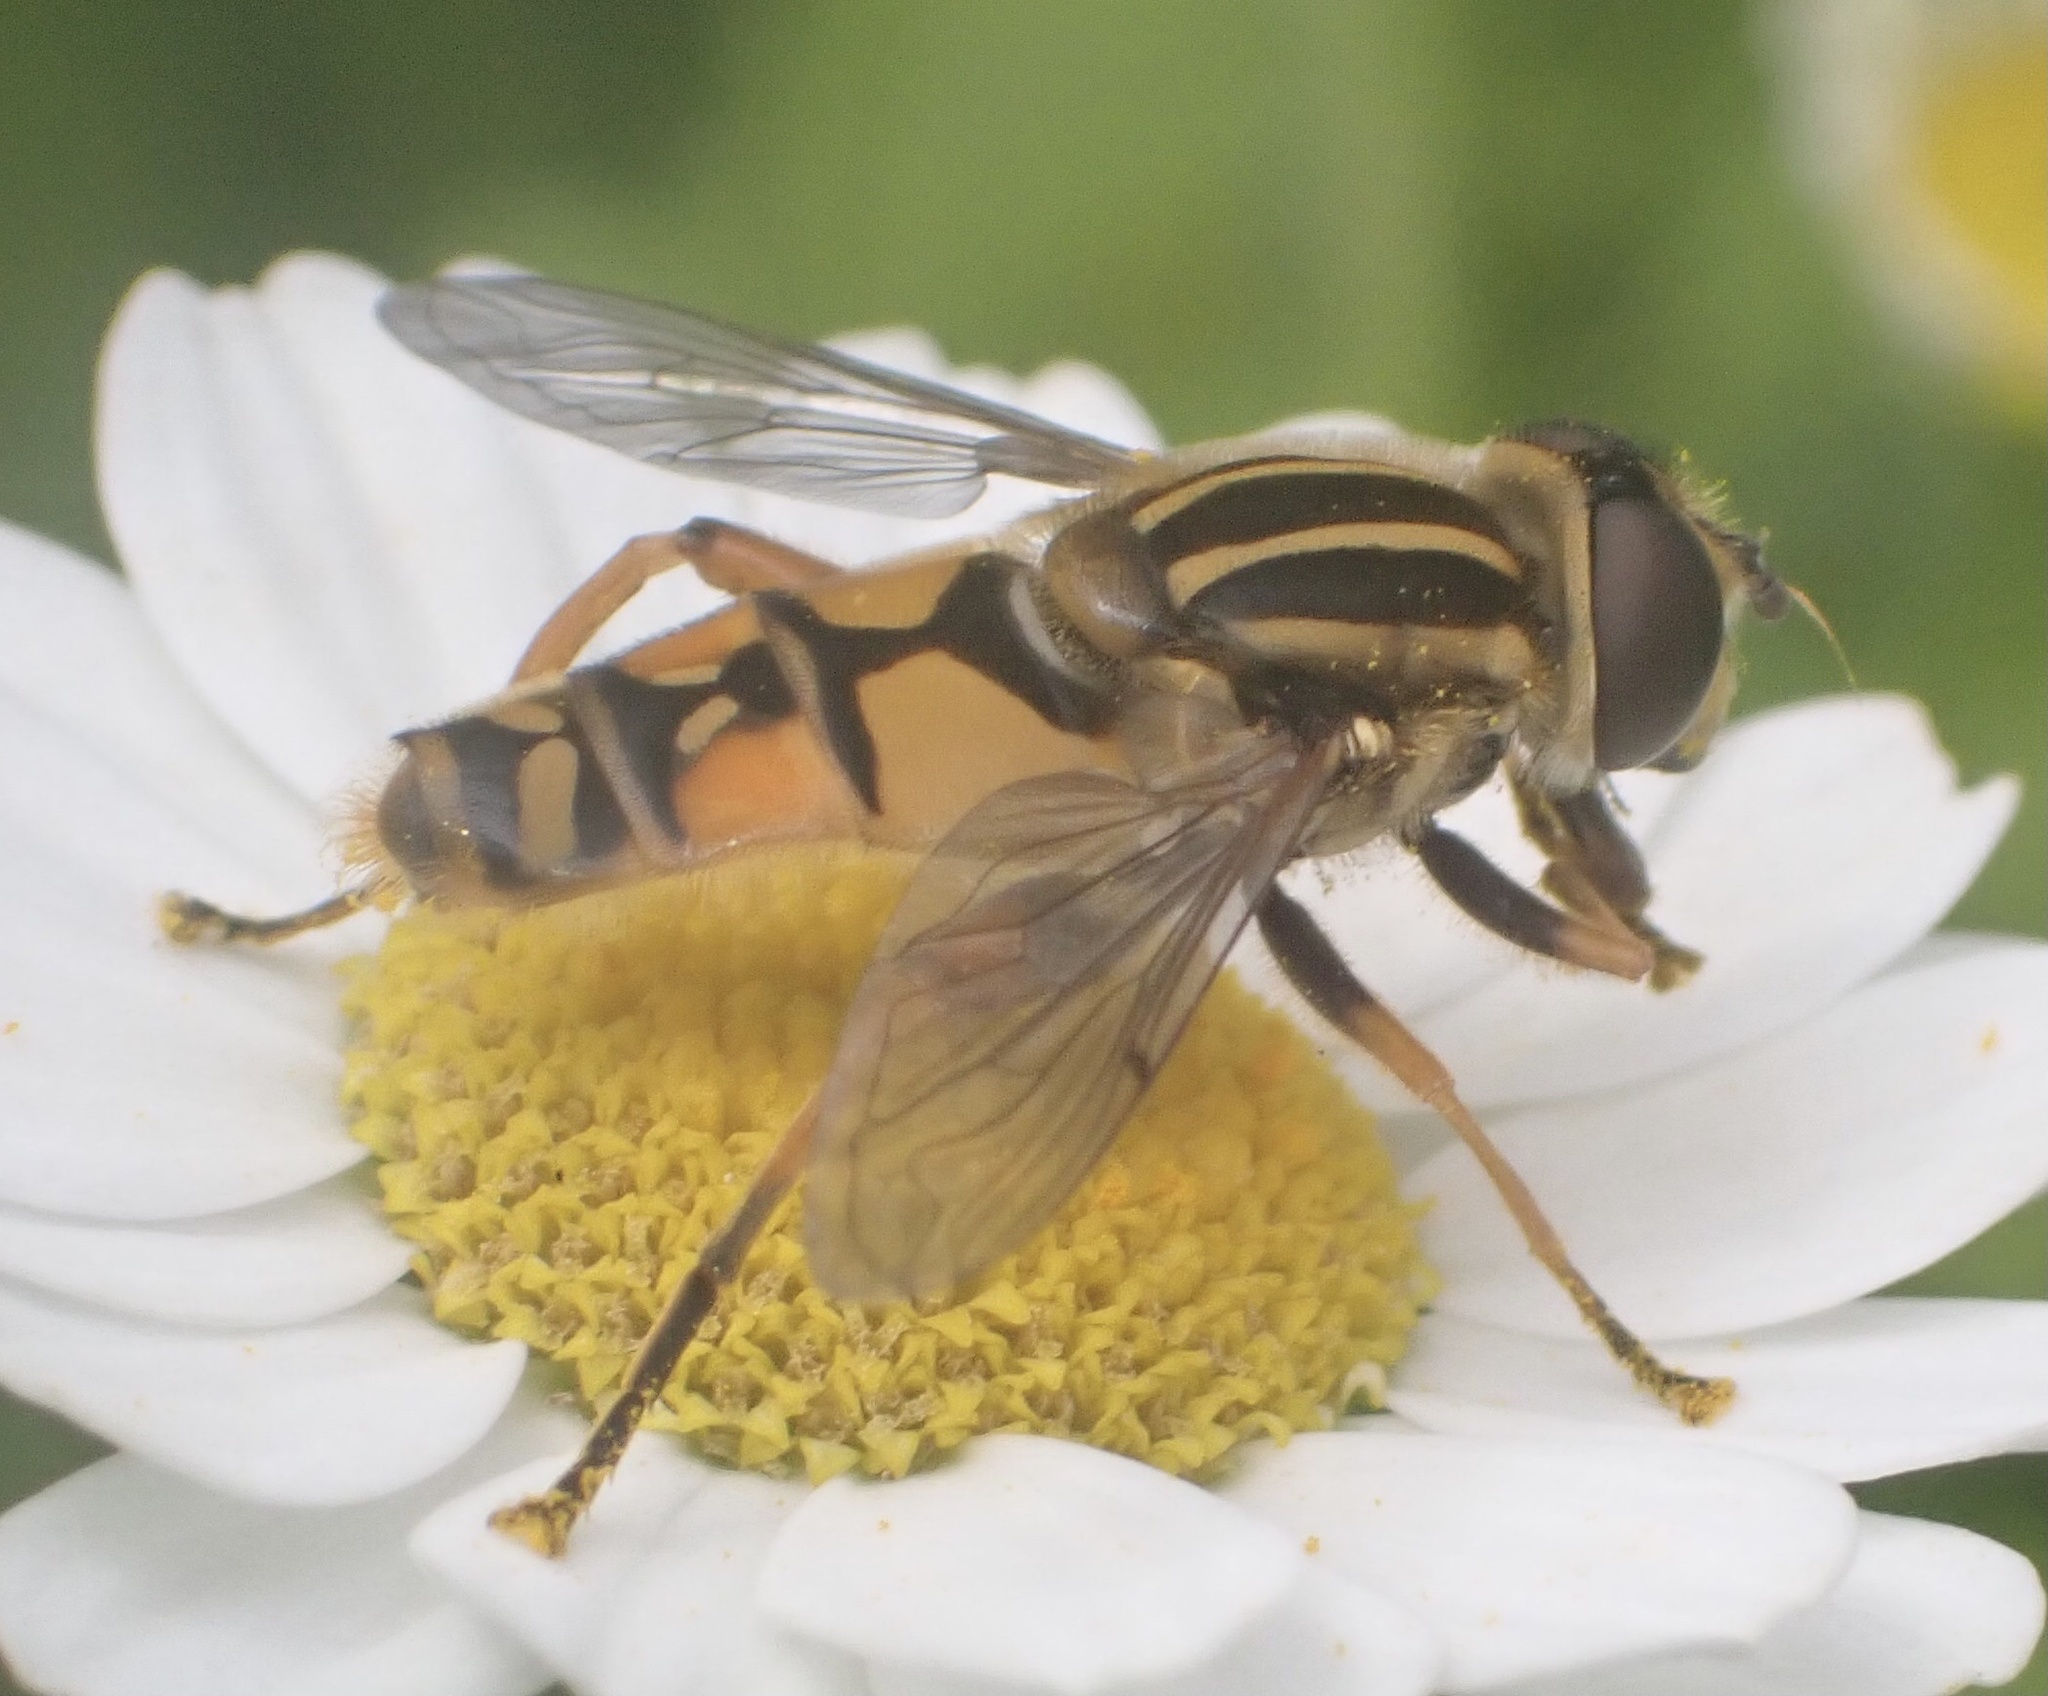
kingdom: Animalia
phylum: Arthropoda
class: Insecta
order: Diptera
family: Syrphidae
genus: Helophilus
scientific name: Helophilus pendulus
